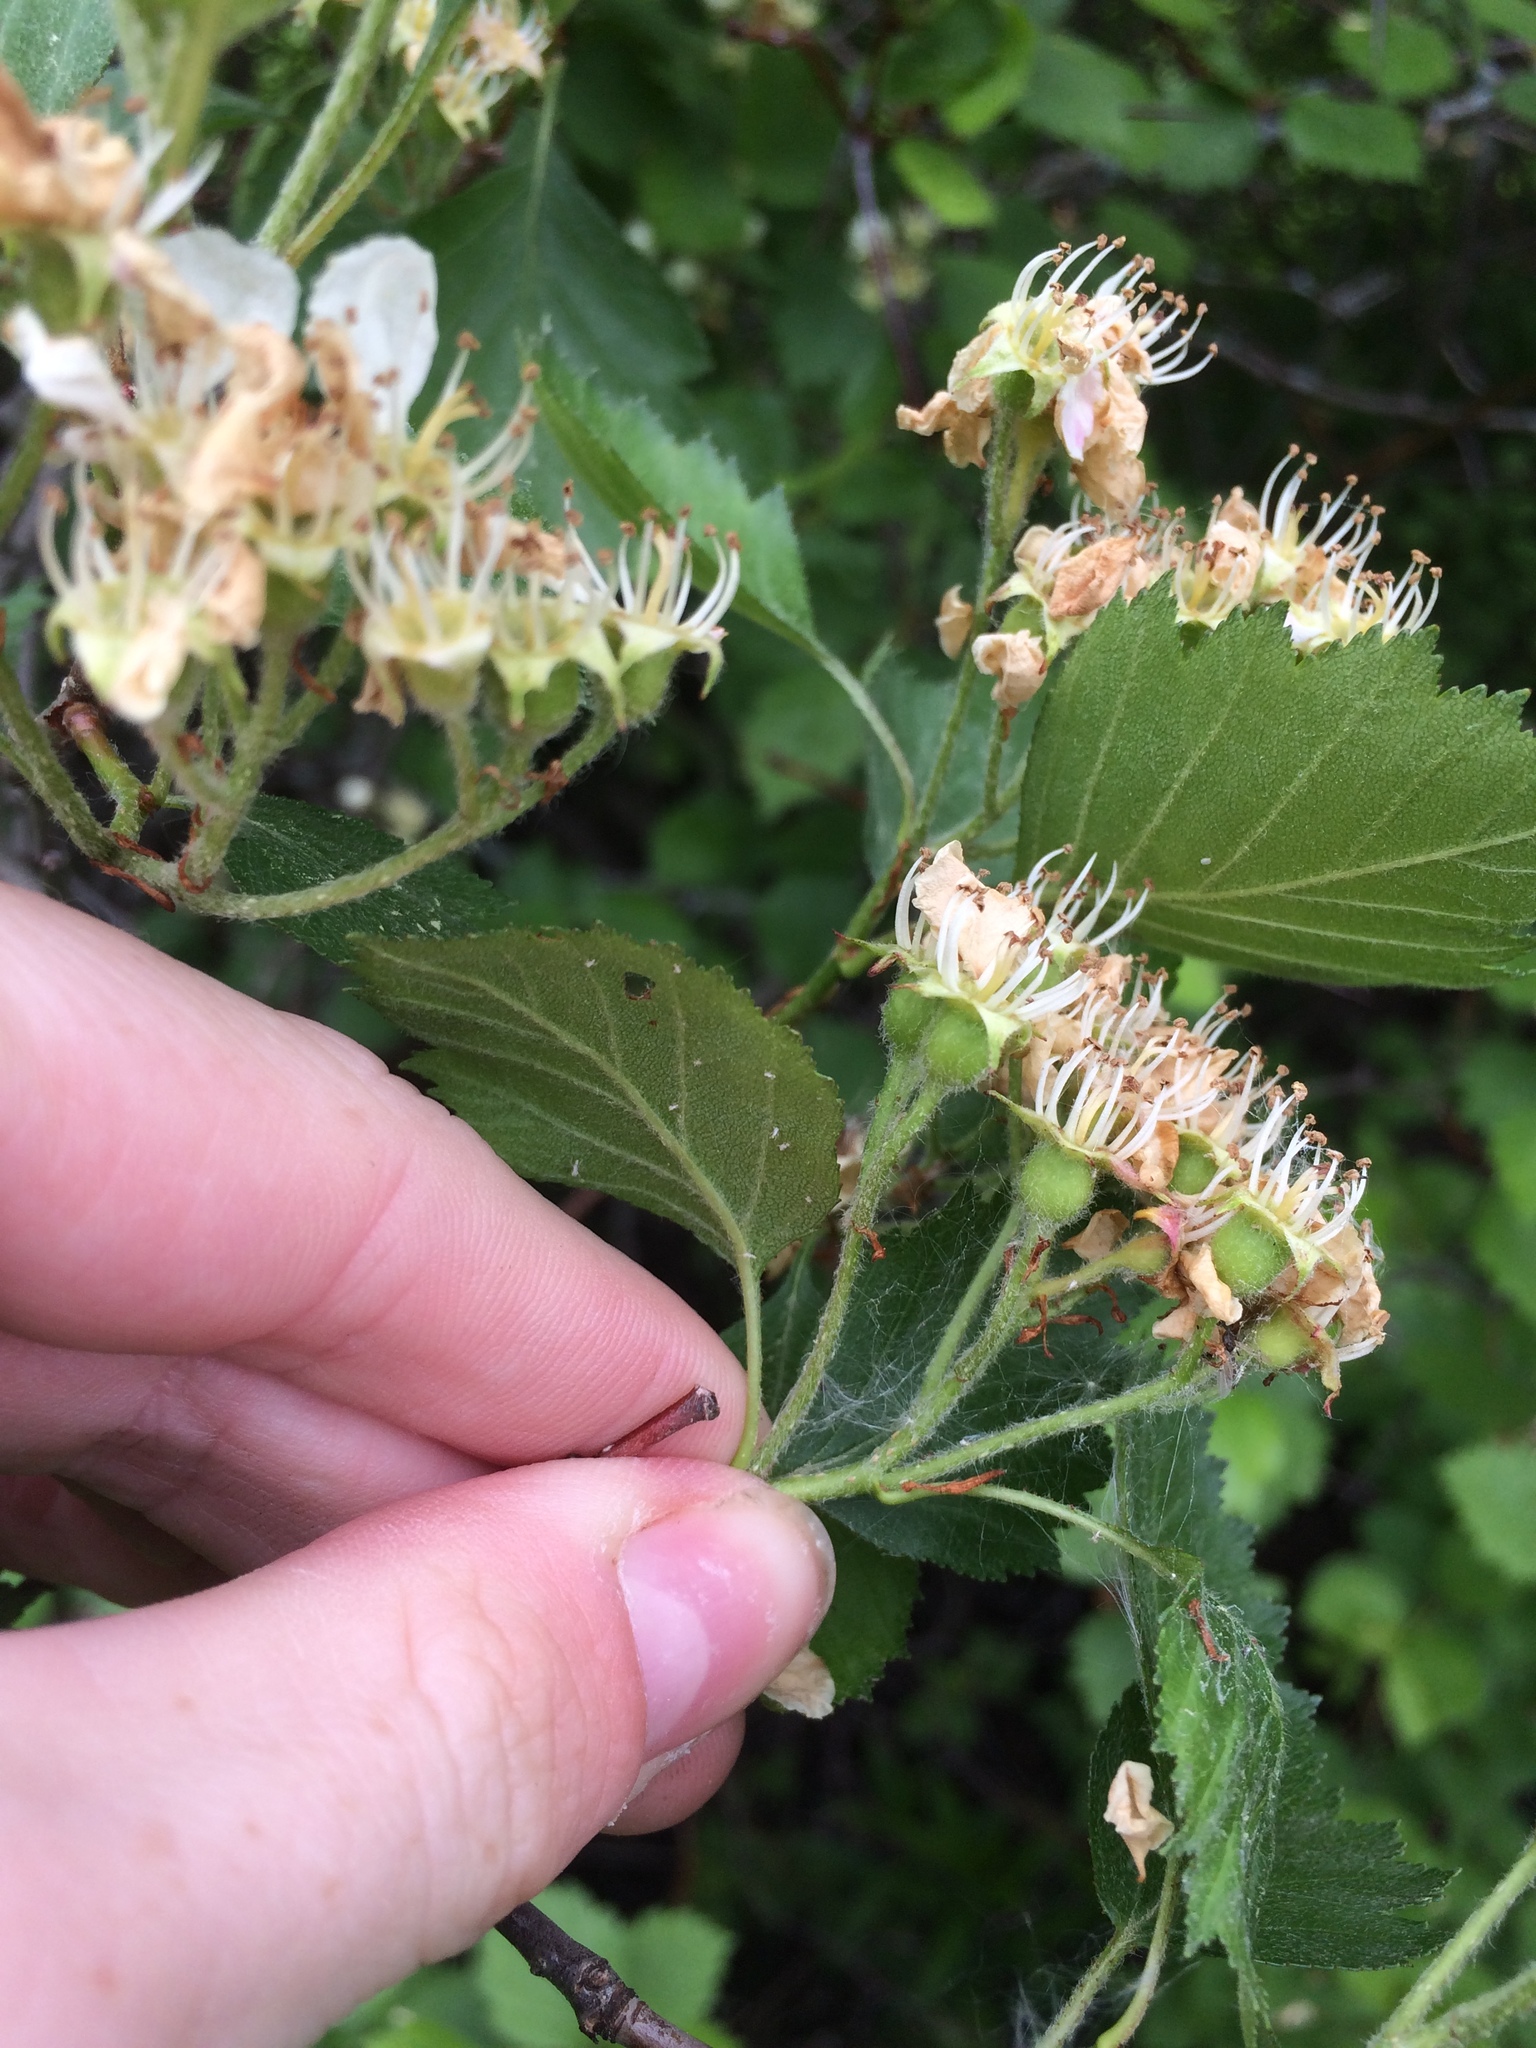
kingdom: Plantae
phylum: Tracheophyta
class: Magnoliopsida
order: Rosales
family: Rosaceae
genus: Crataegus
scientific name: Crataegus chrysocarpa
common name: Fire-berry hawthorn
